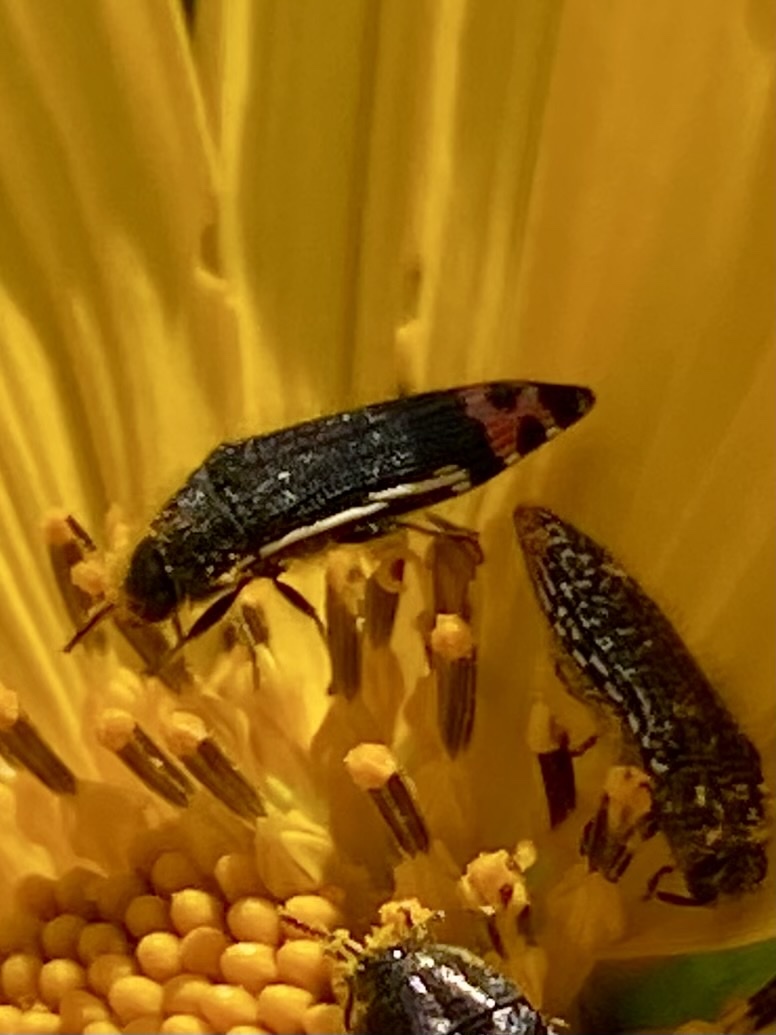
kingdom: Animalia
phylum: Arthropoda
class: Insecta
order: Coleoptera
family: Buprestidae
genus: Acmaeodera
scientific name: Acmaeodera flavomarginata
